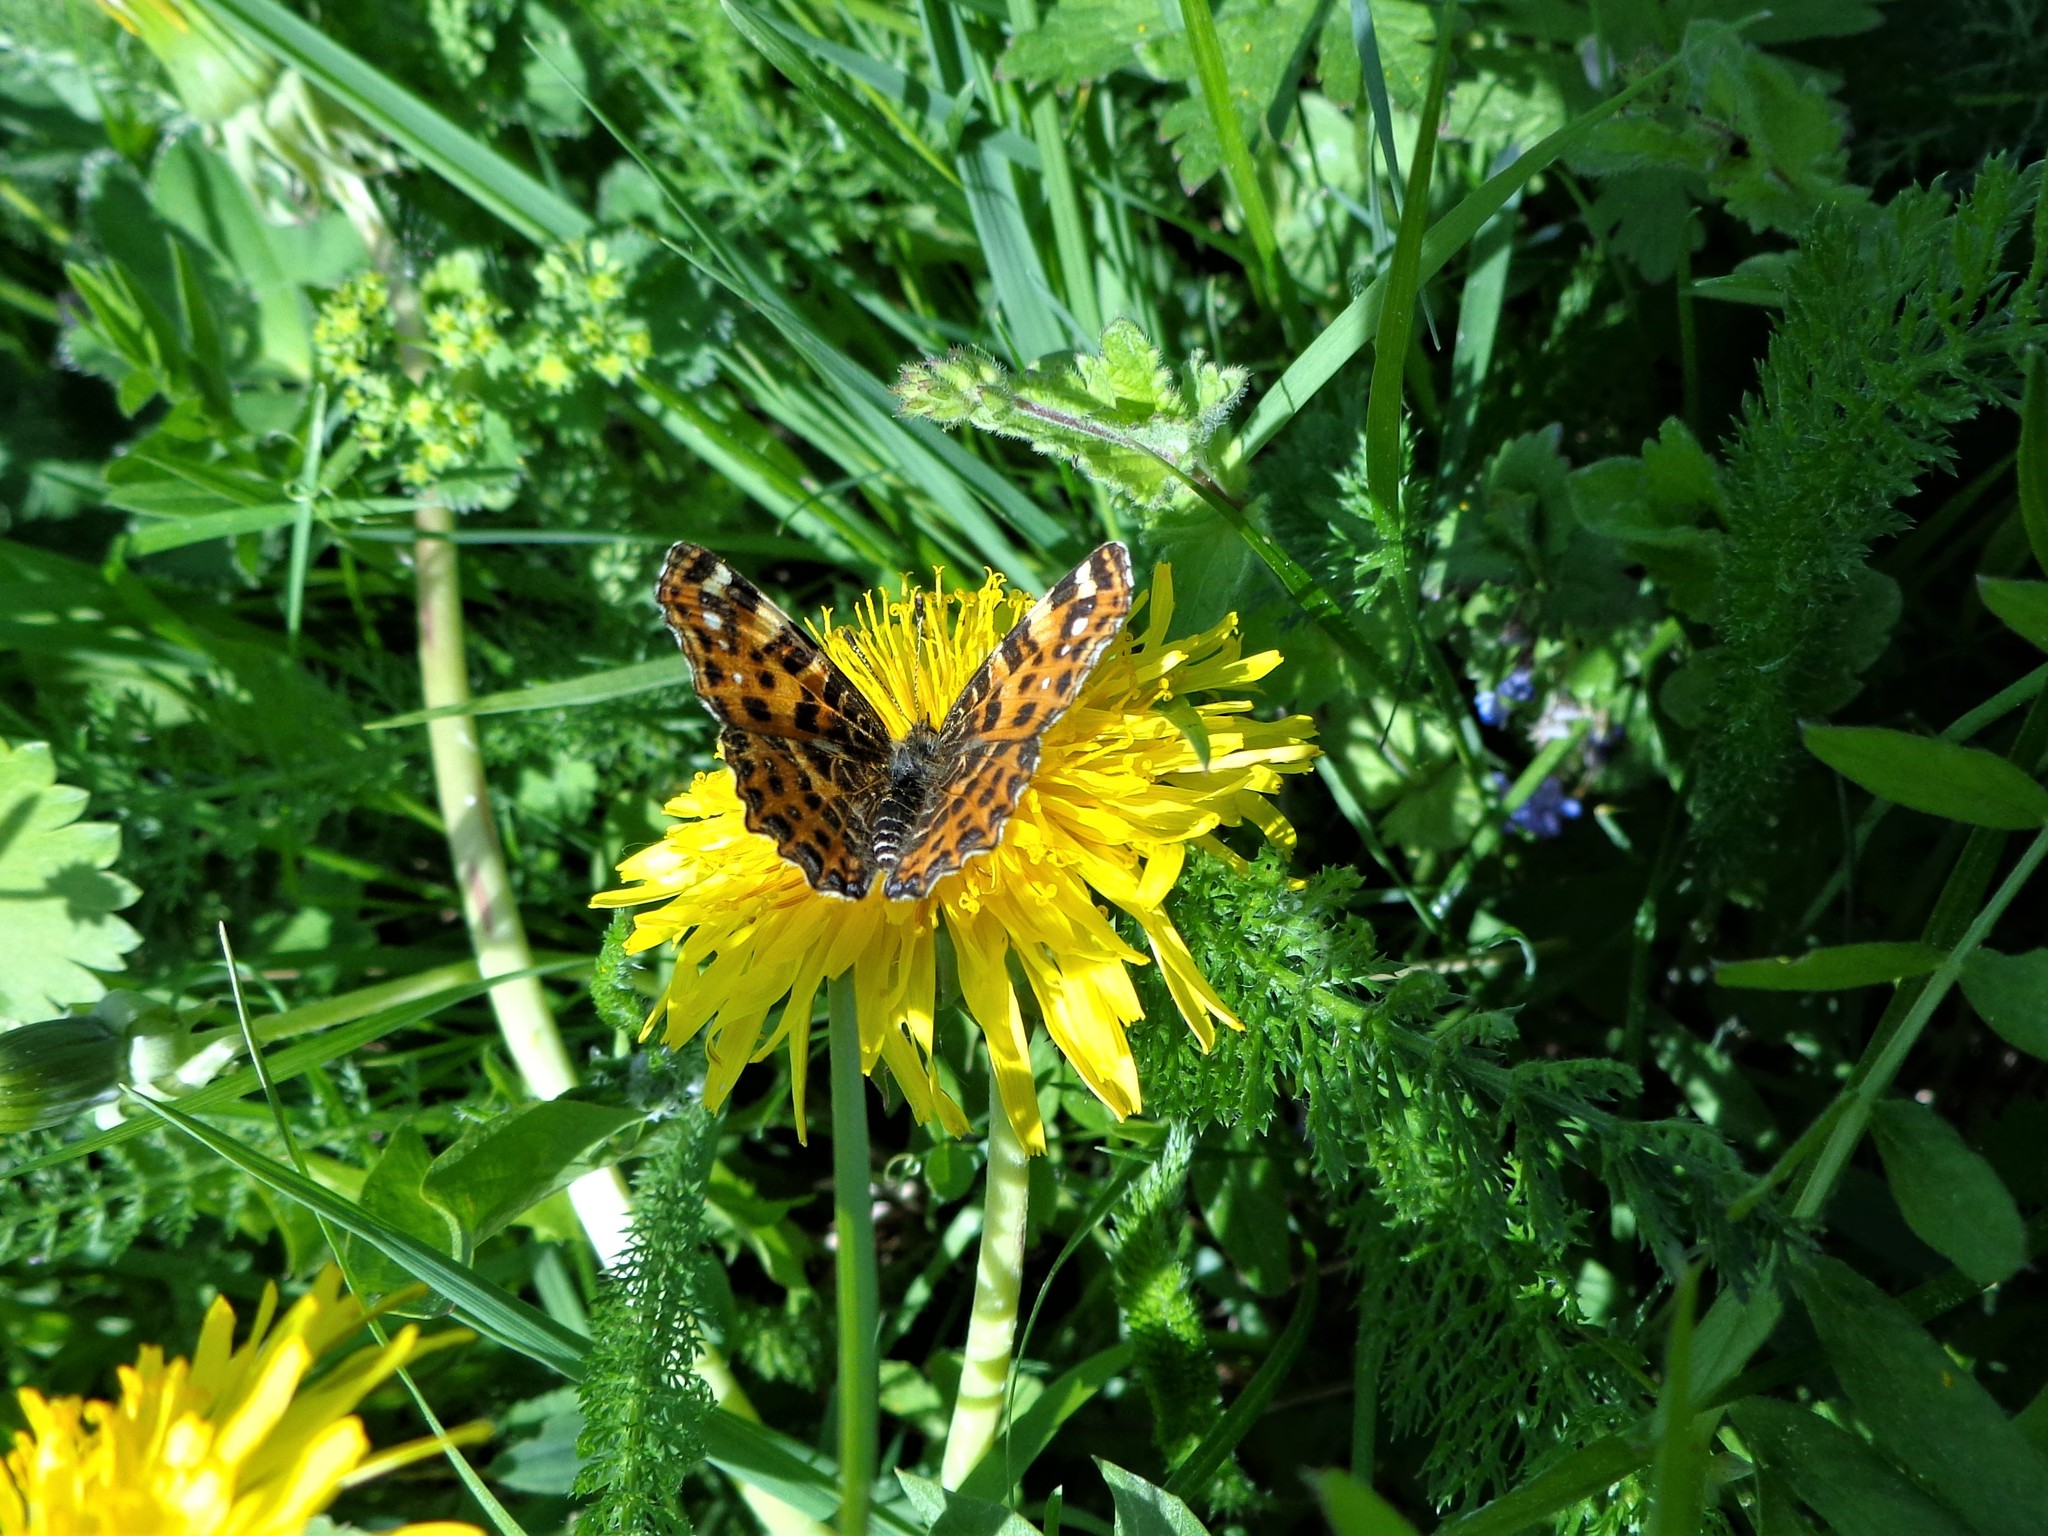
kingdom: Animalia
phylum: Arthropoda
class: Insecta
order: Lepidoptera
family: Nymphalidae
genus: Araschnia
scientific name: Araschnia levana
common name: Map butterfly
